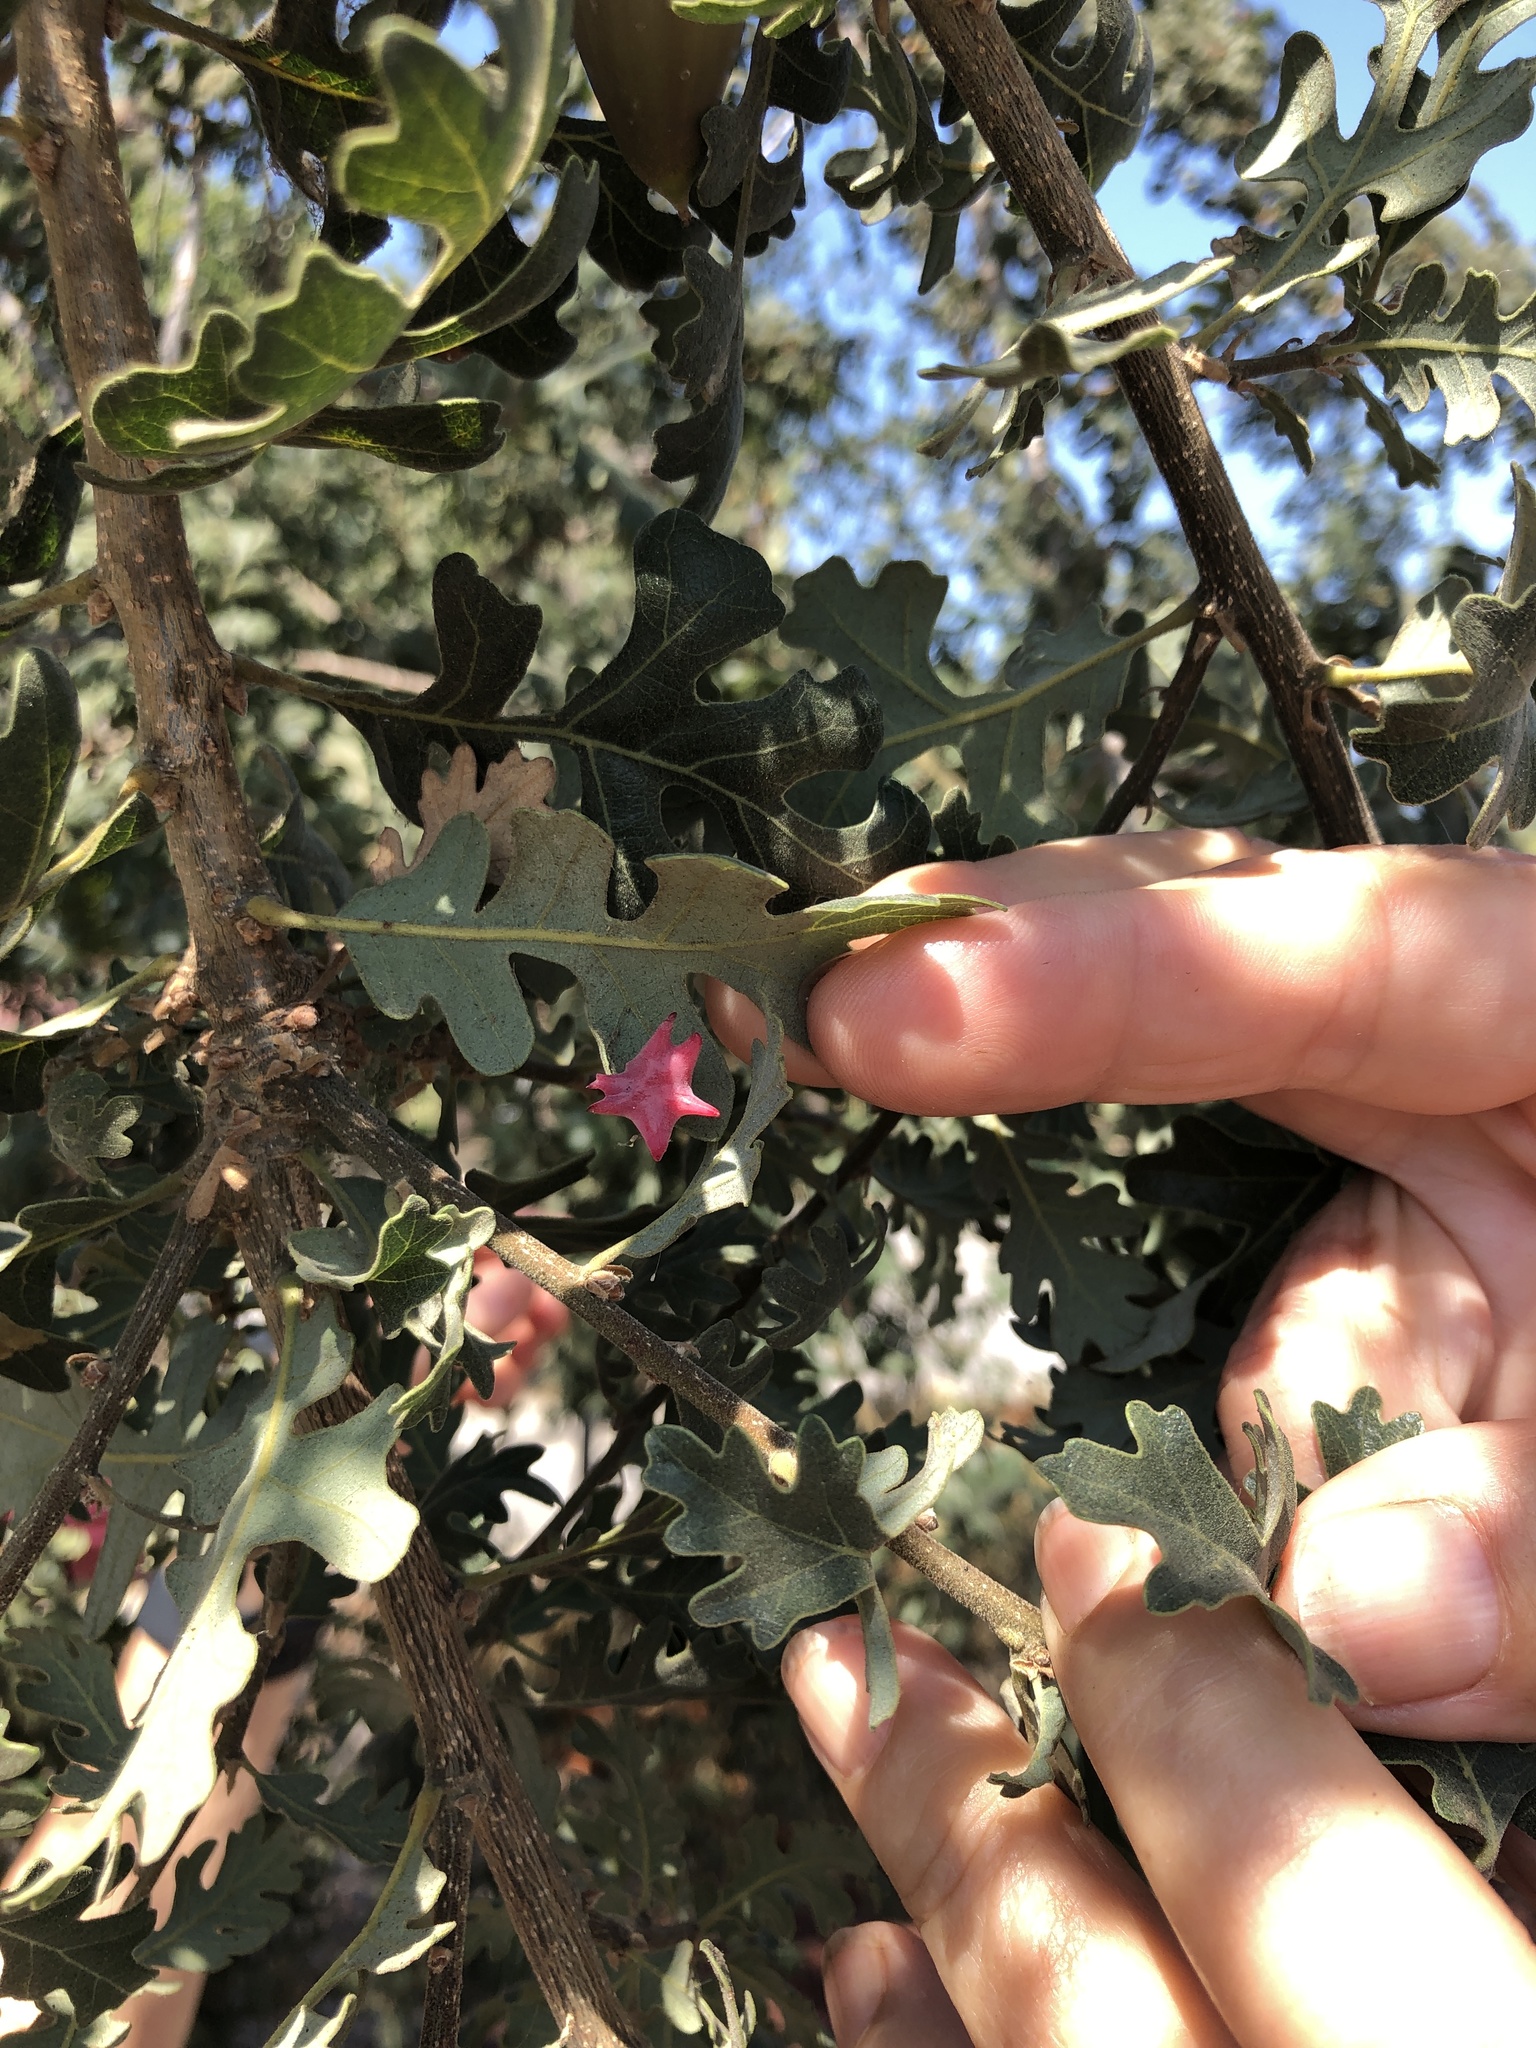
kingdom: Animalia
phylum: Arthropoda
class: Insecta
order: Hymenoptera
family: Cynipidae
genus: Cynips
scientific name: Cynips douglasi
